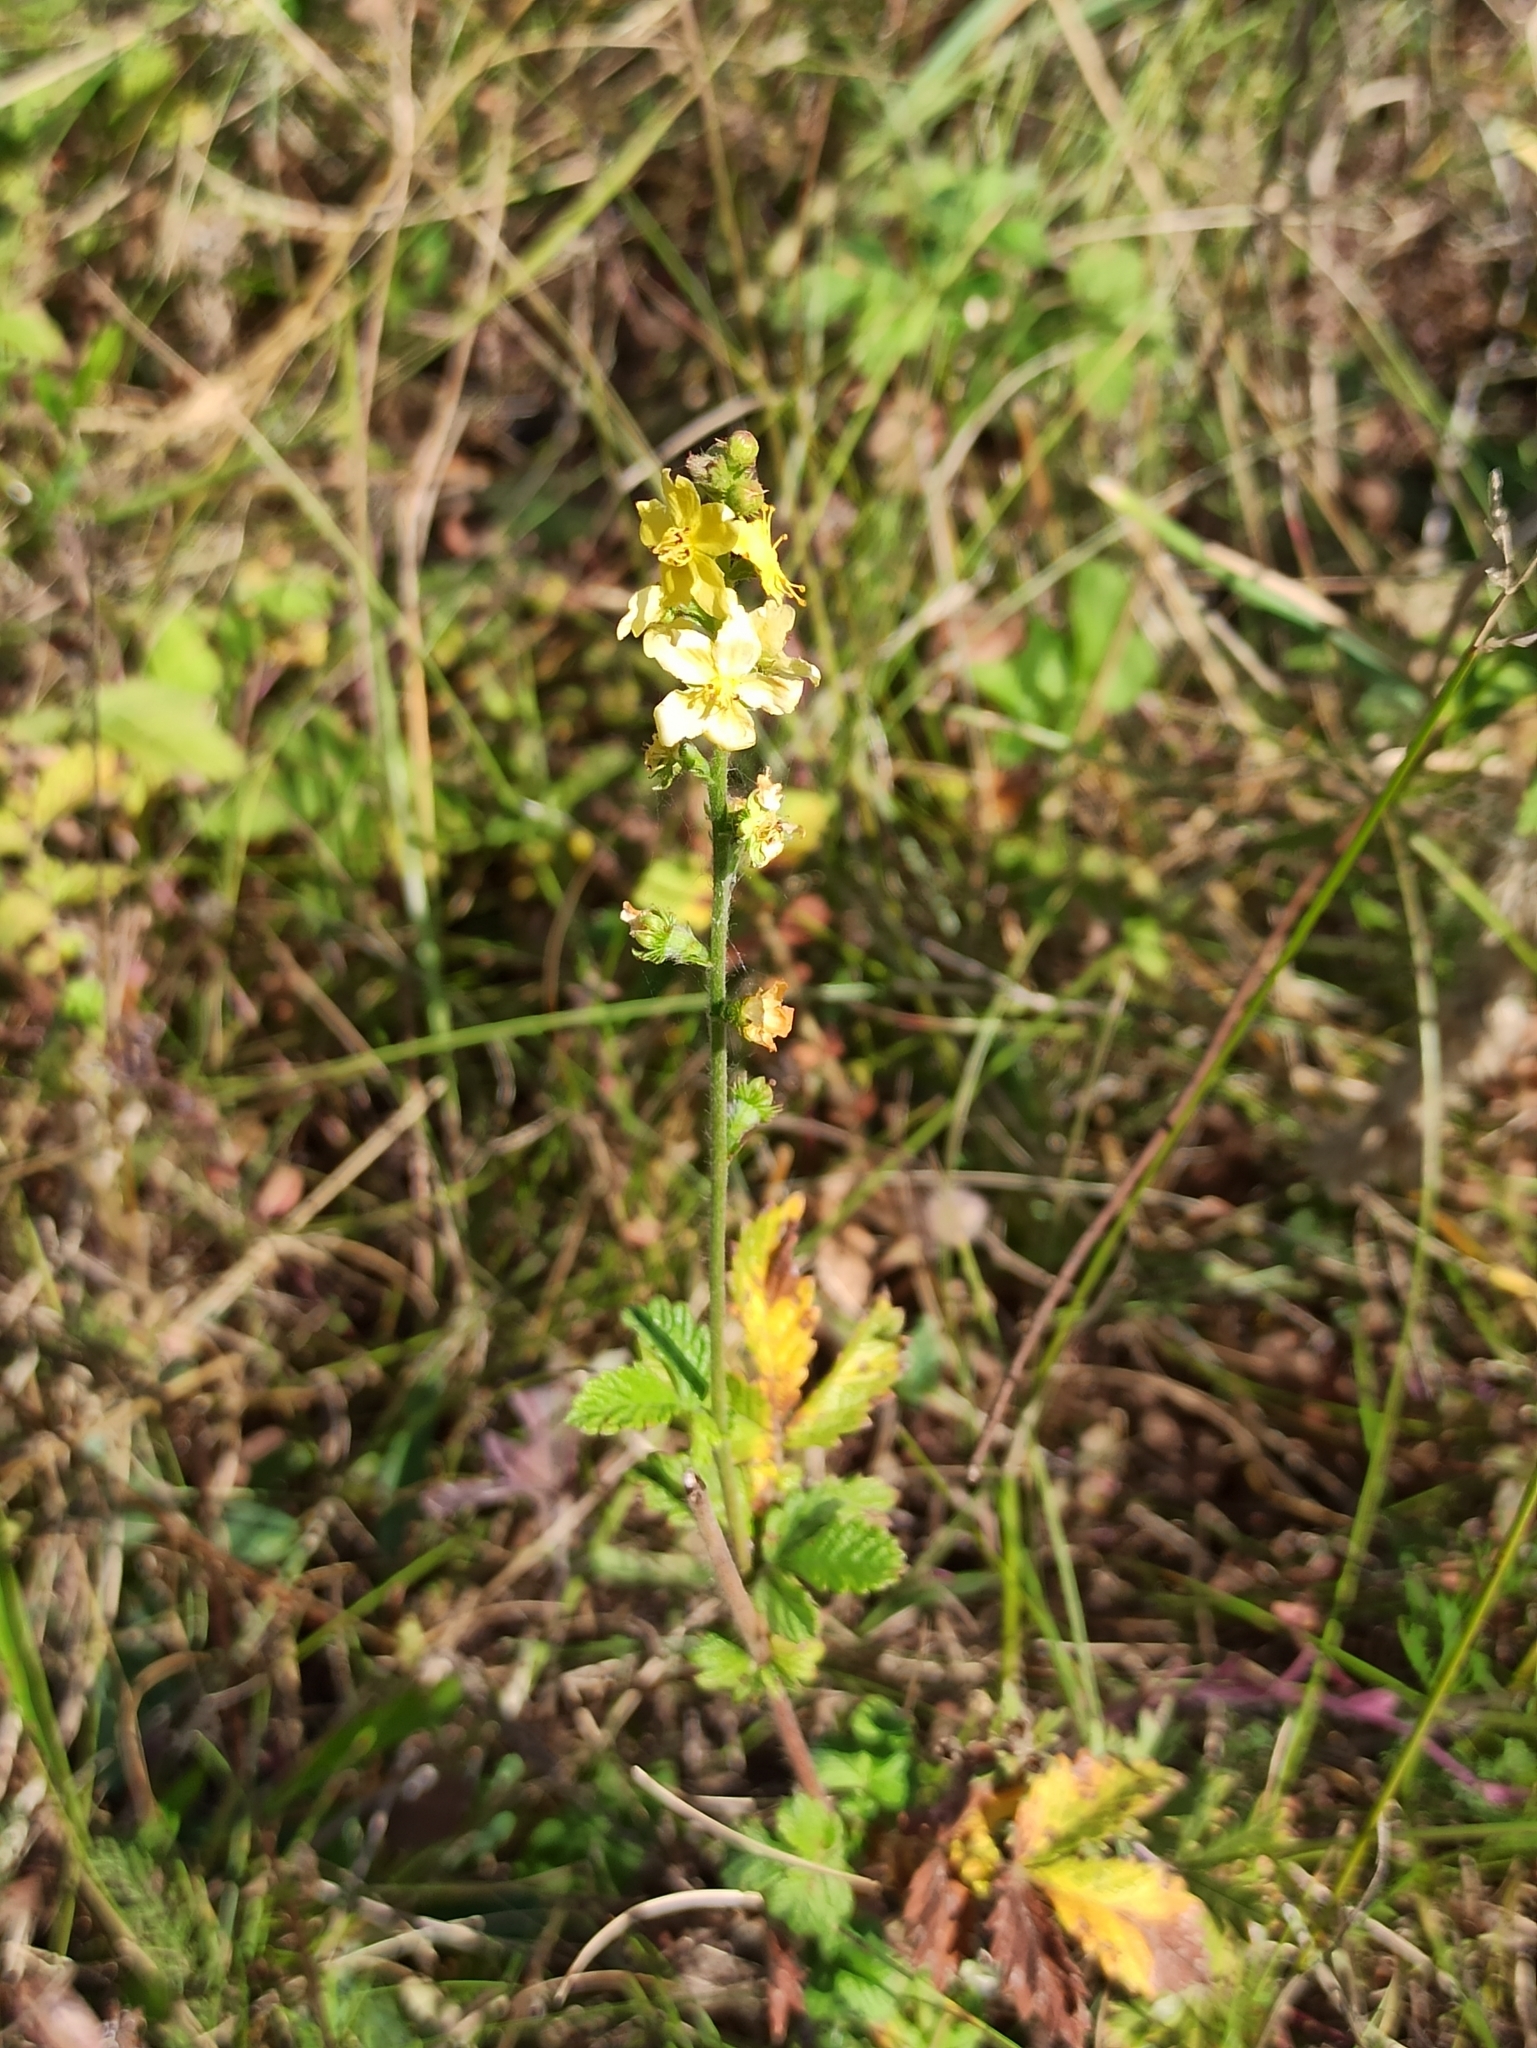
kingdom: Plantae
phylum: Tracheophyta
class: Magnoliopsida
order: Rosales
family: Rosaceae
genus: Agrimonia
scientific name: Agrimonia eupatoria
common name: Agrimony
